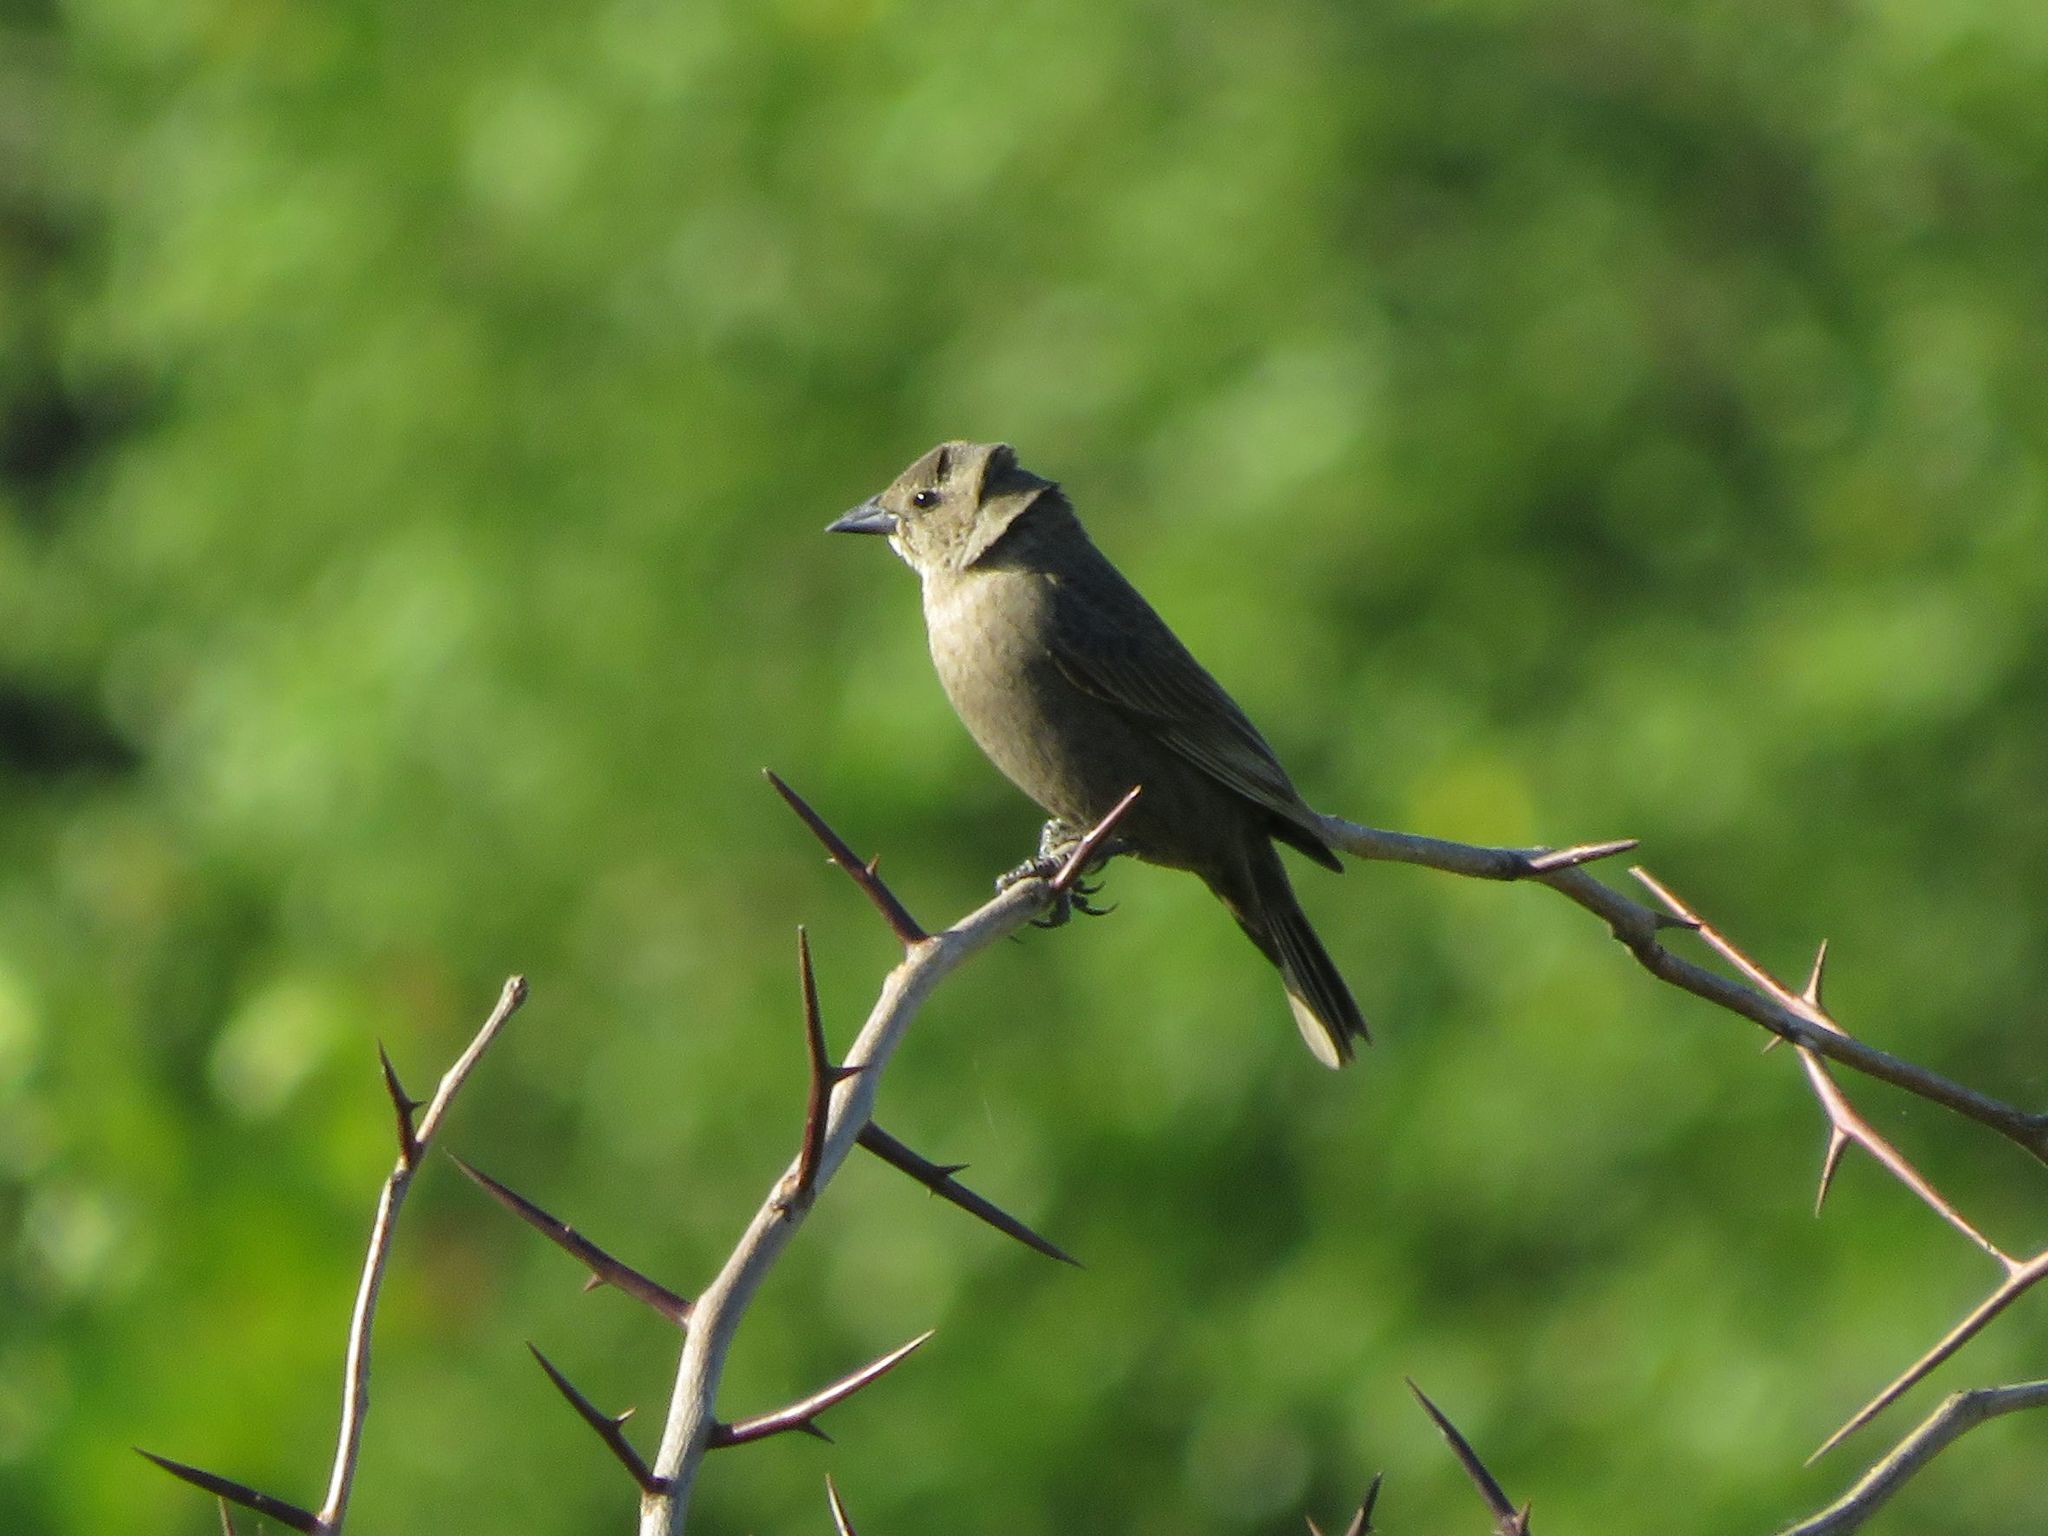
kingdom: Animalia
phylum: Chordata
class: Aves
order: Passeriformes
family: Icteridae
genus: Molothrus
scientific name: Molothrus bonariensis
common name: Shiny cowbird
